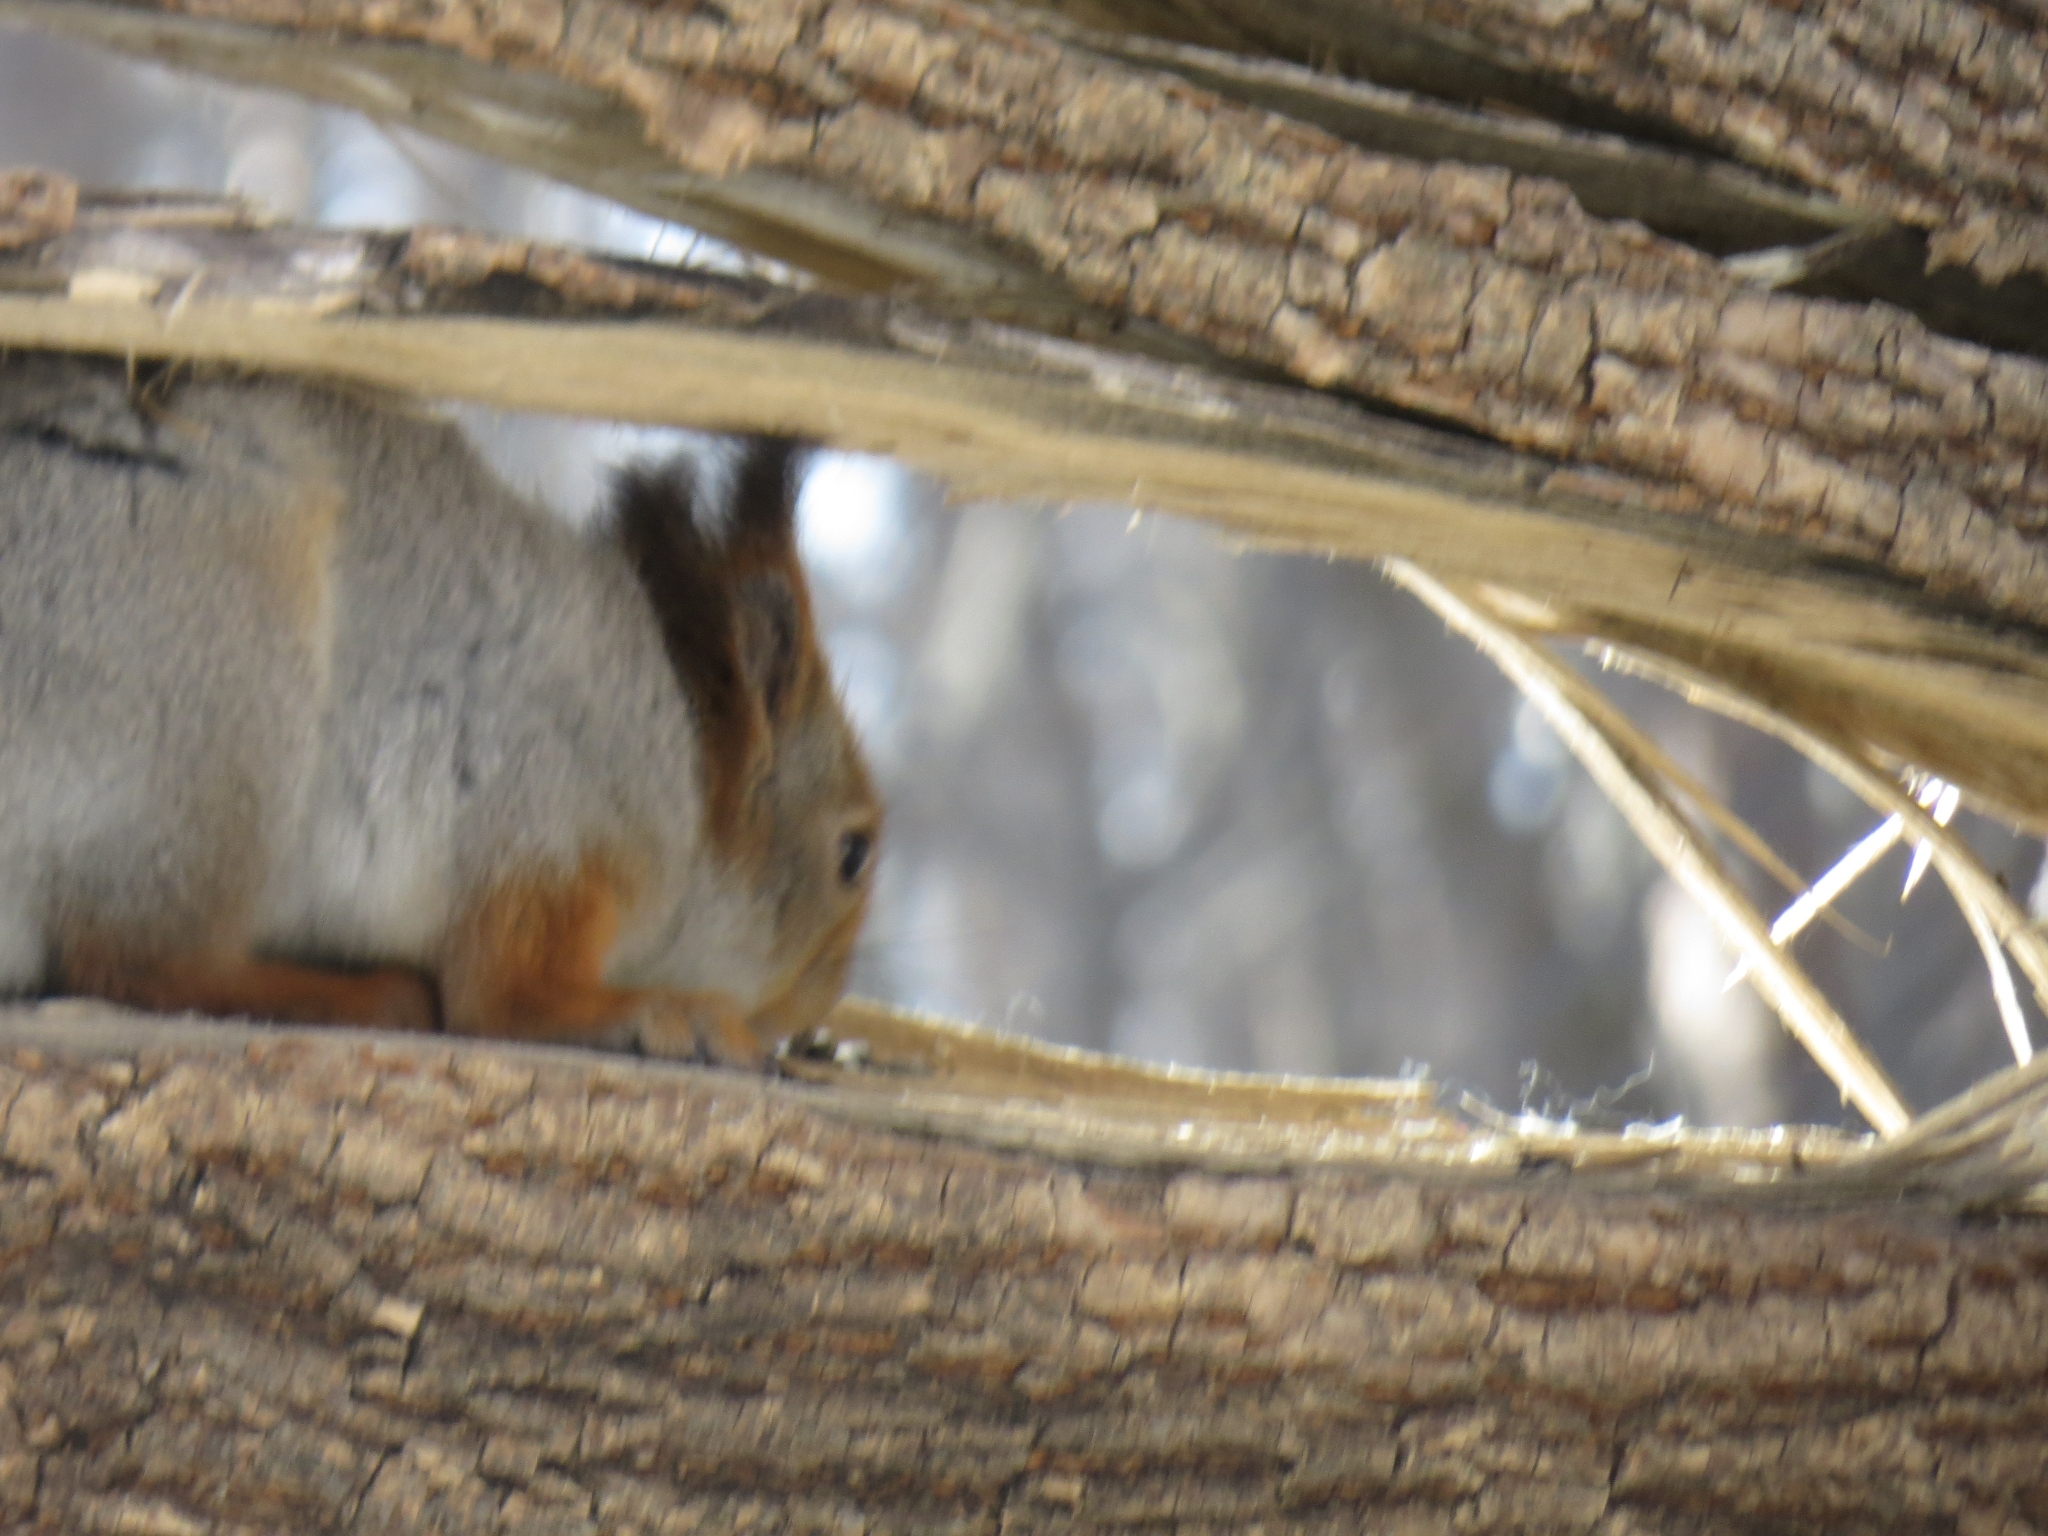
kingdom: Animalia
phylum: Chordata
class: Mammalia
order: Rodentia
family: Sciuridae
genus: Sciurus
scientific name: Sciurus vulgaris
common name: Eurasian red squirrel
